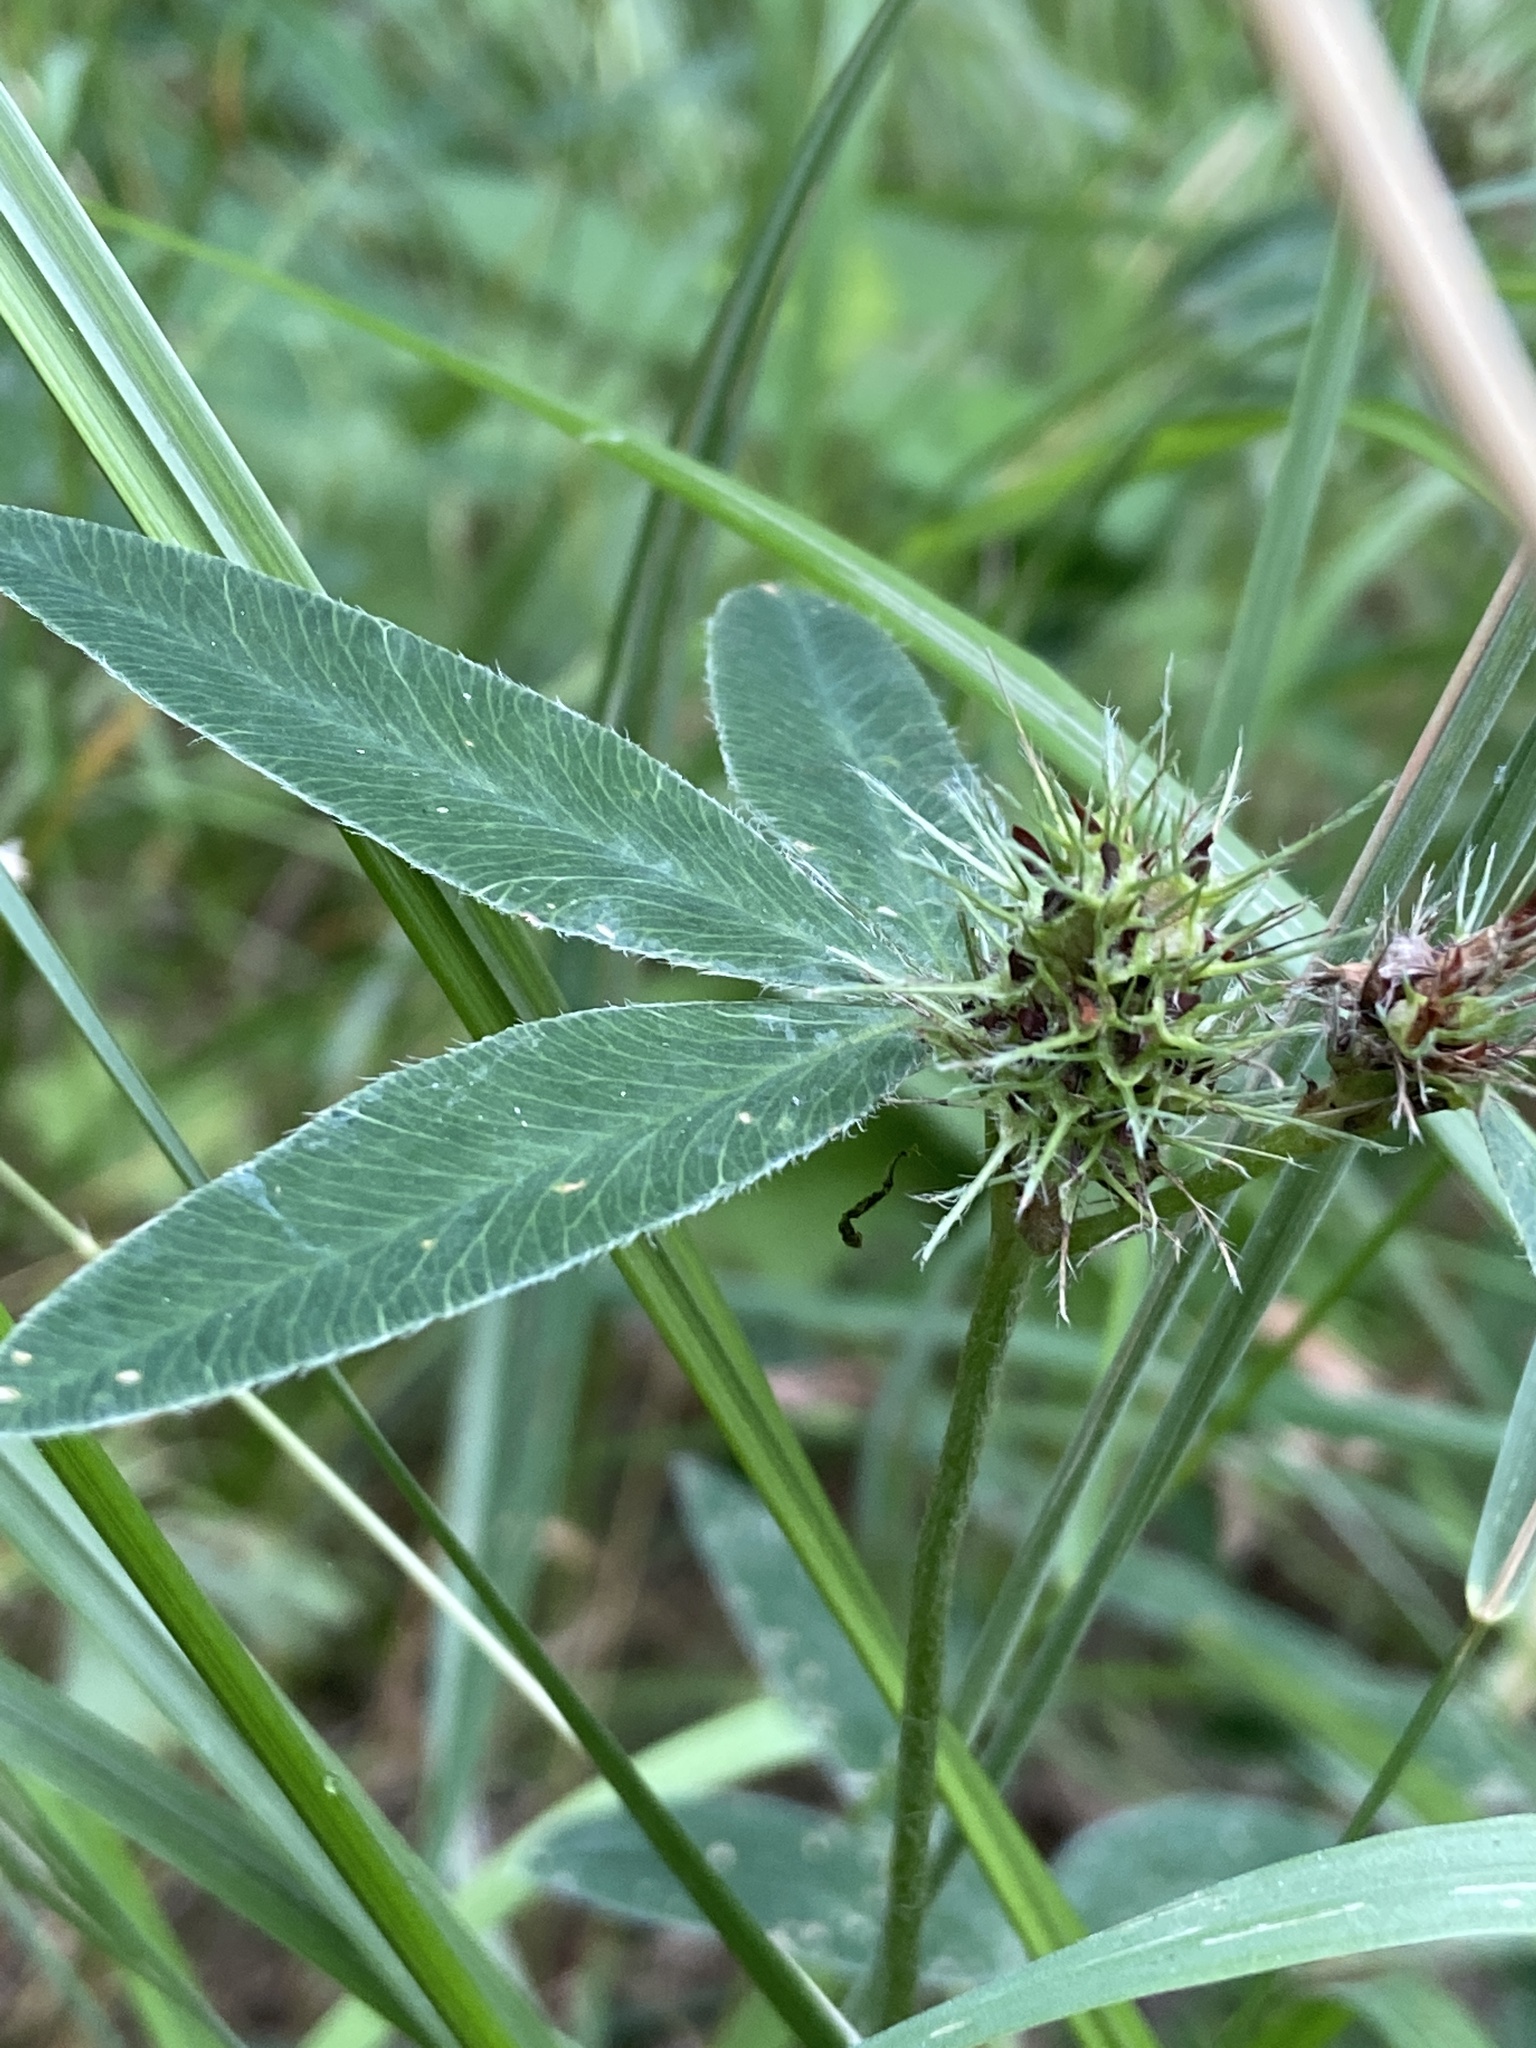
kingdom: Plantae
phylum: Tracheophyta
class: Magnoliopsida
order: Fabales
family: Fabaceae
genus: Trifolium
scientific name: Trifolium medium
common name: Zigzag clover
